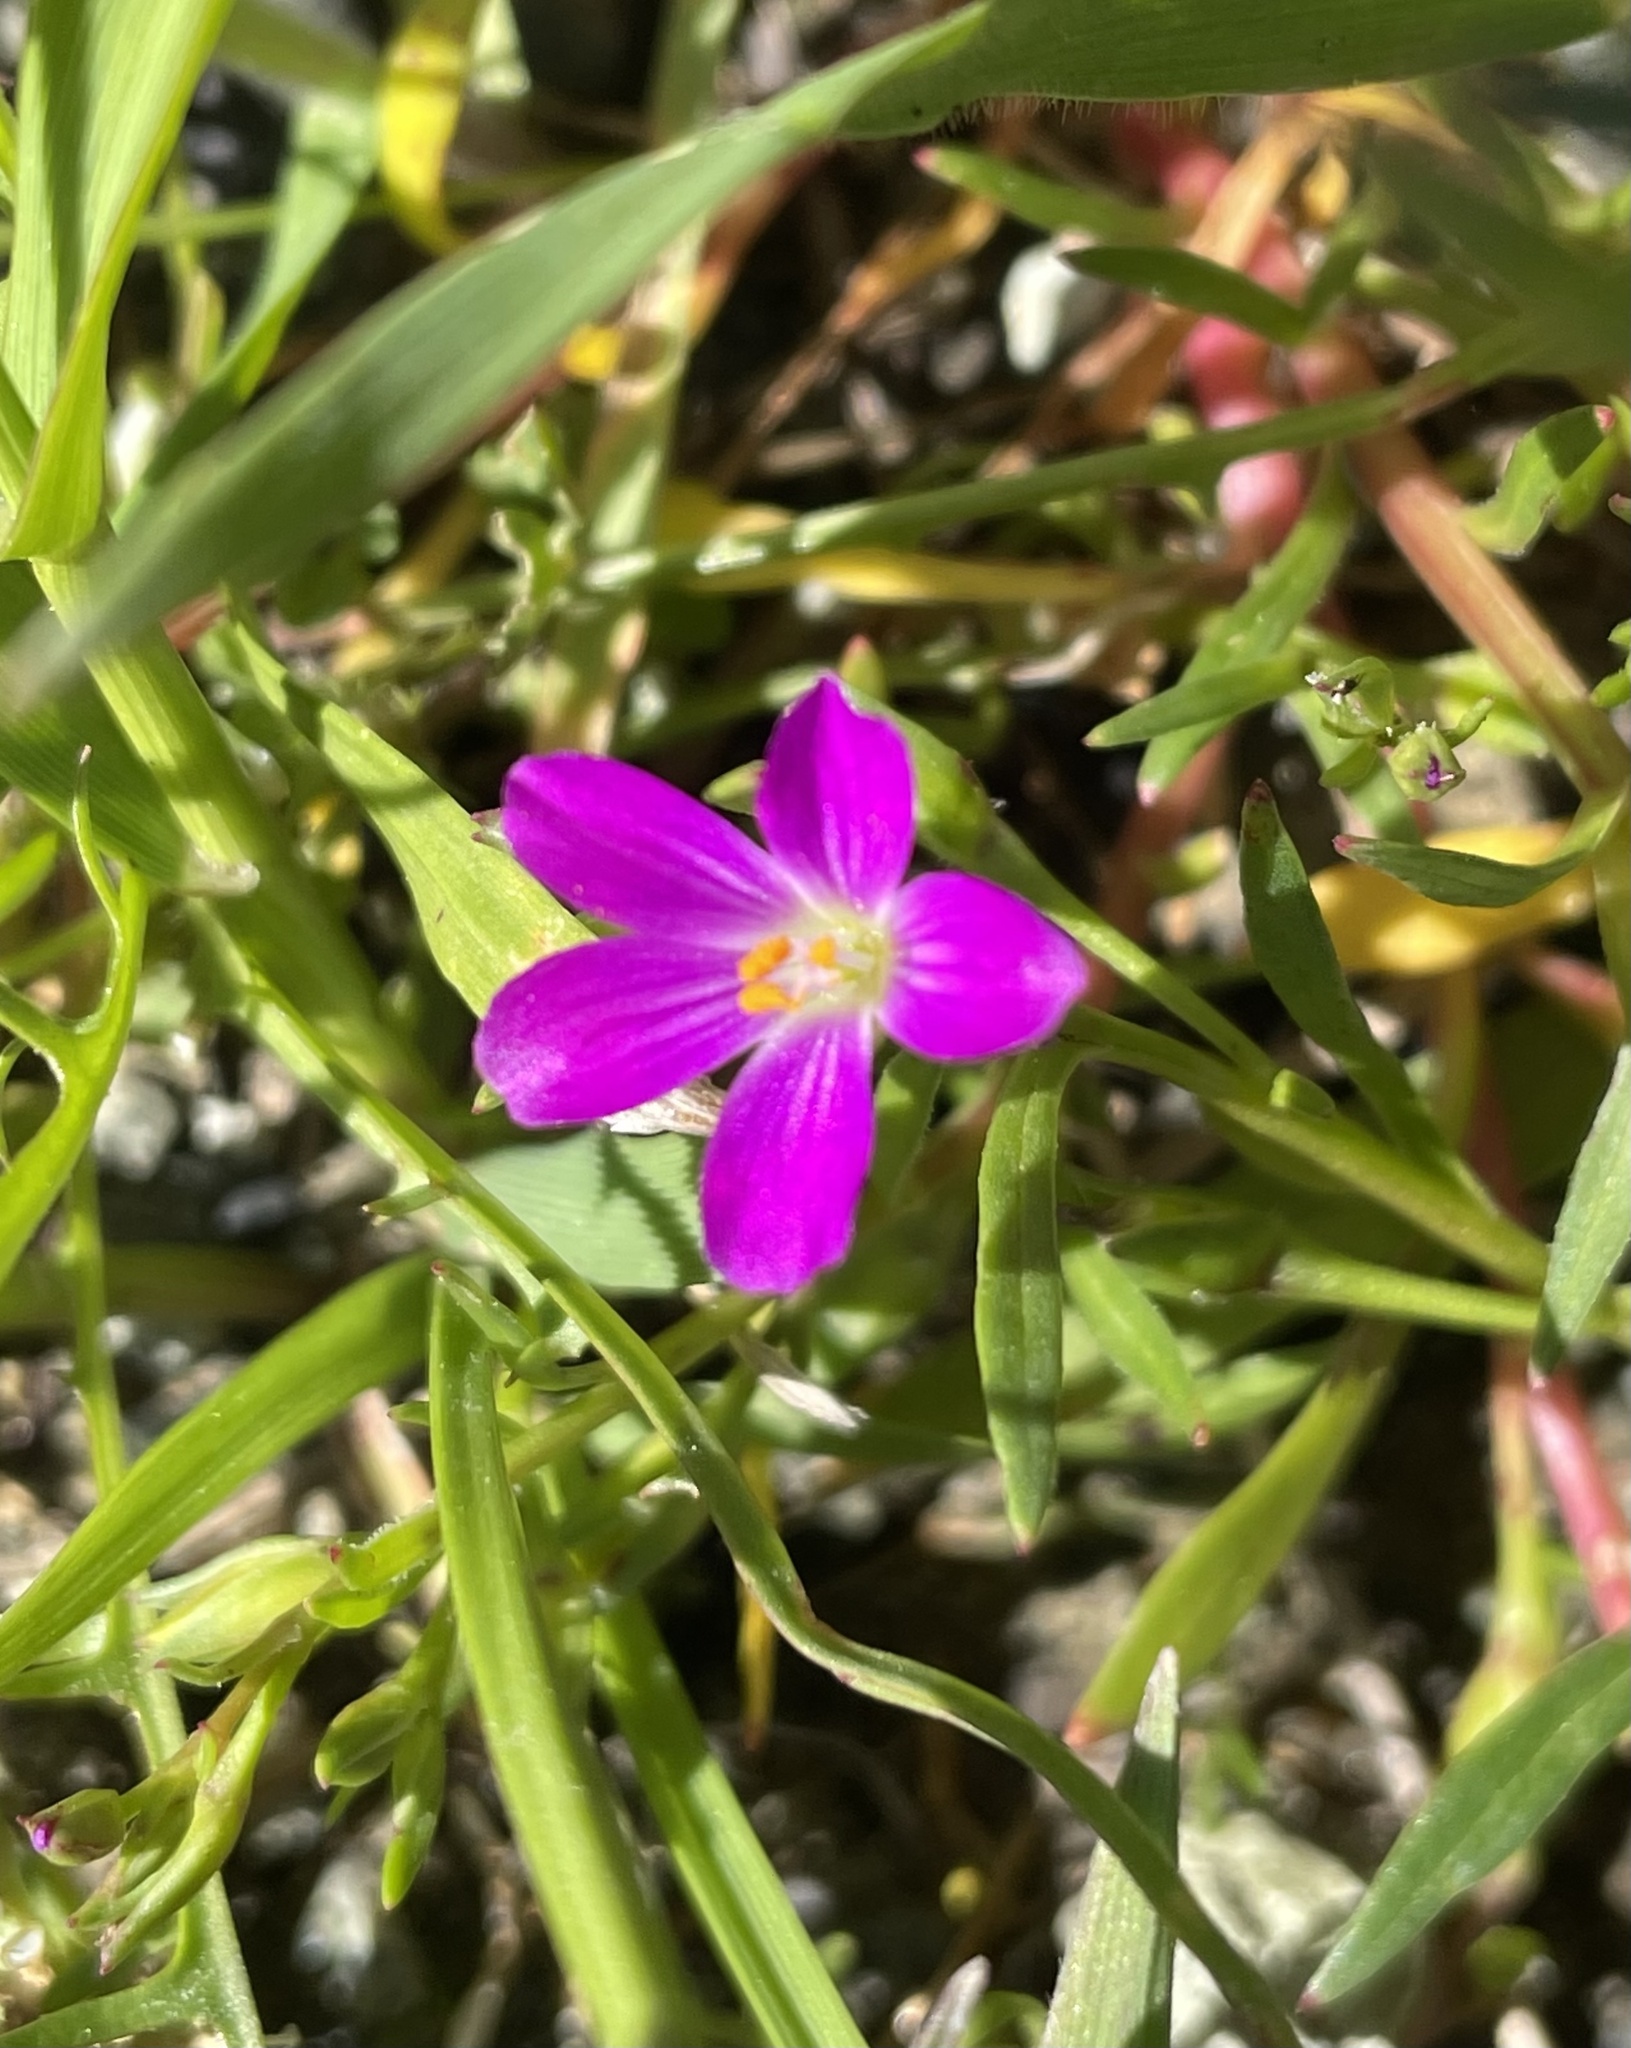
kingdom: Plantae
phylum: Tracheophyta
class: Magnoliopsida
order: Caryophyllales
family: Montiaceae
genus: Calandrinia
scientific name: Calandrinia menziesii
